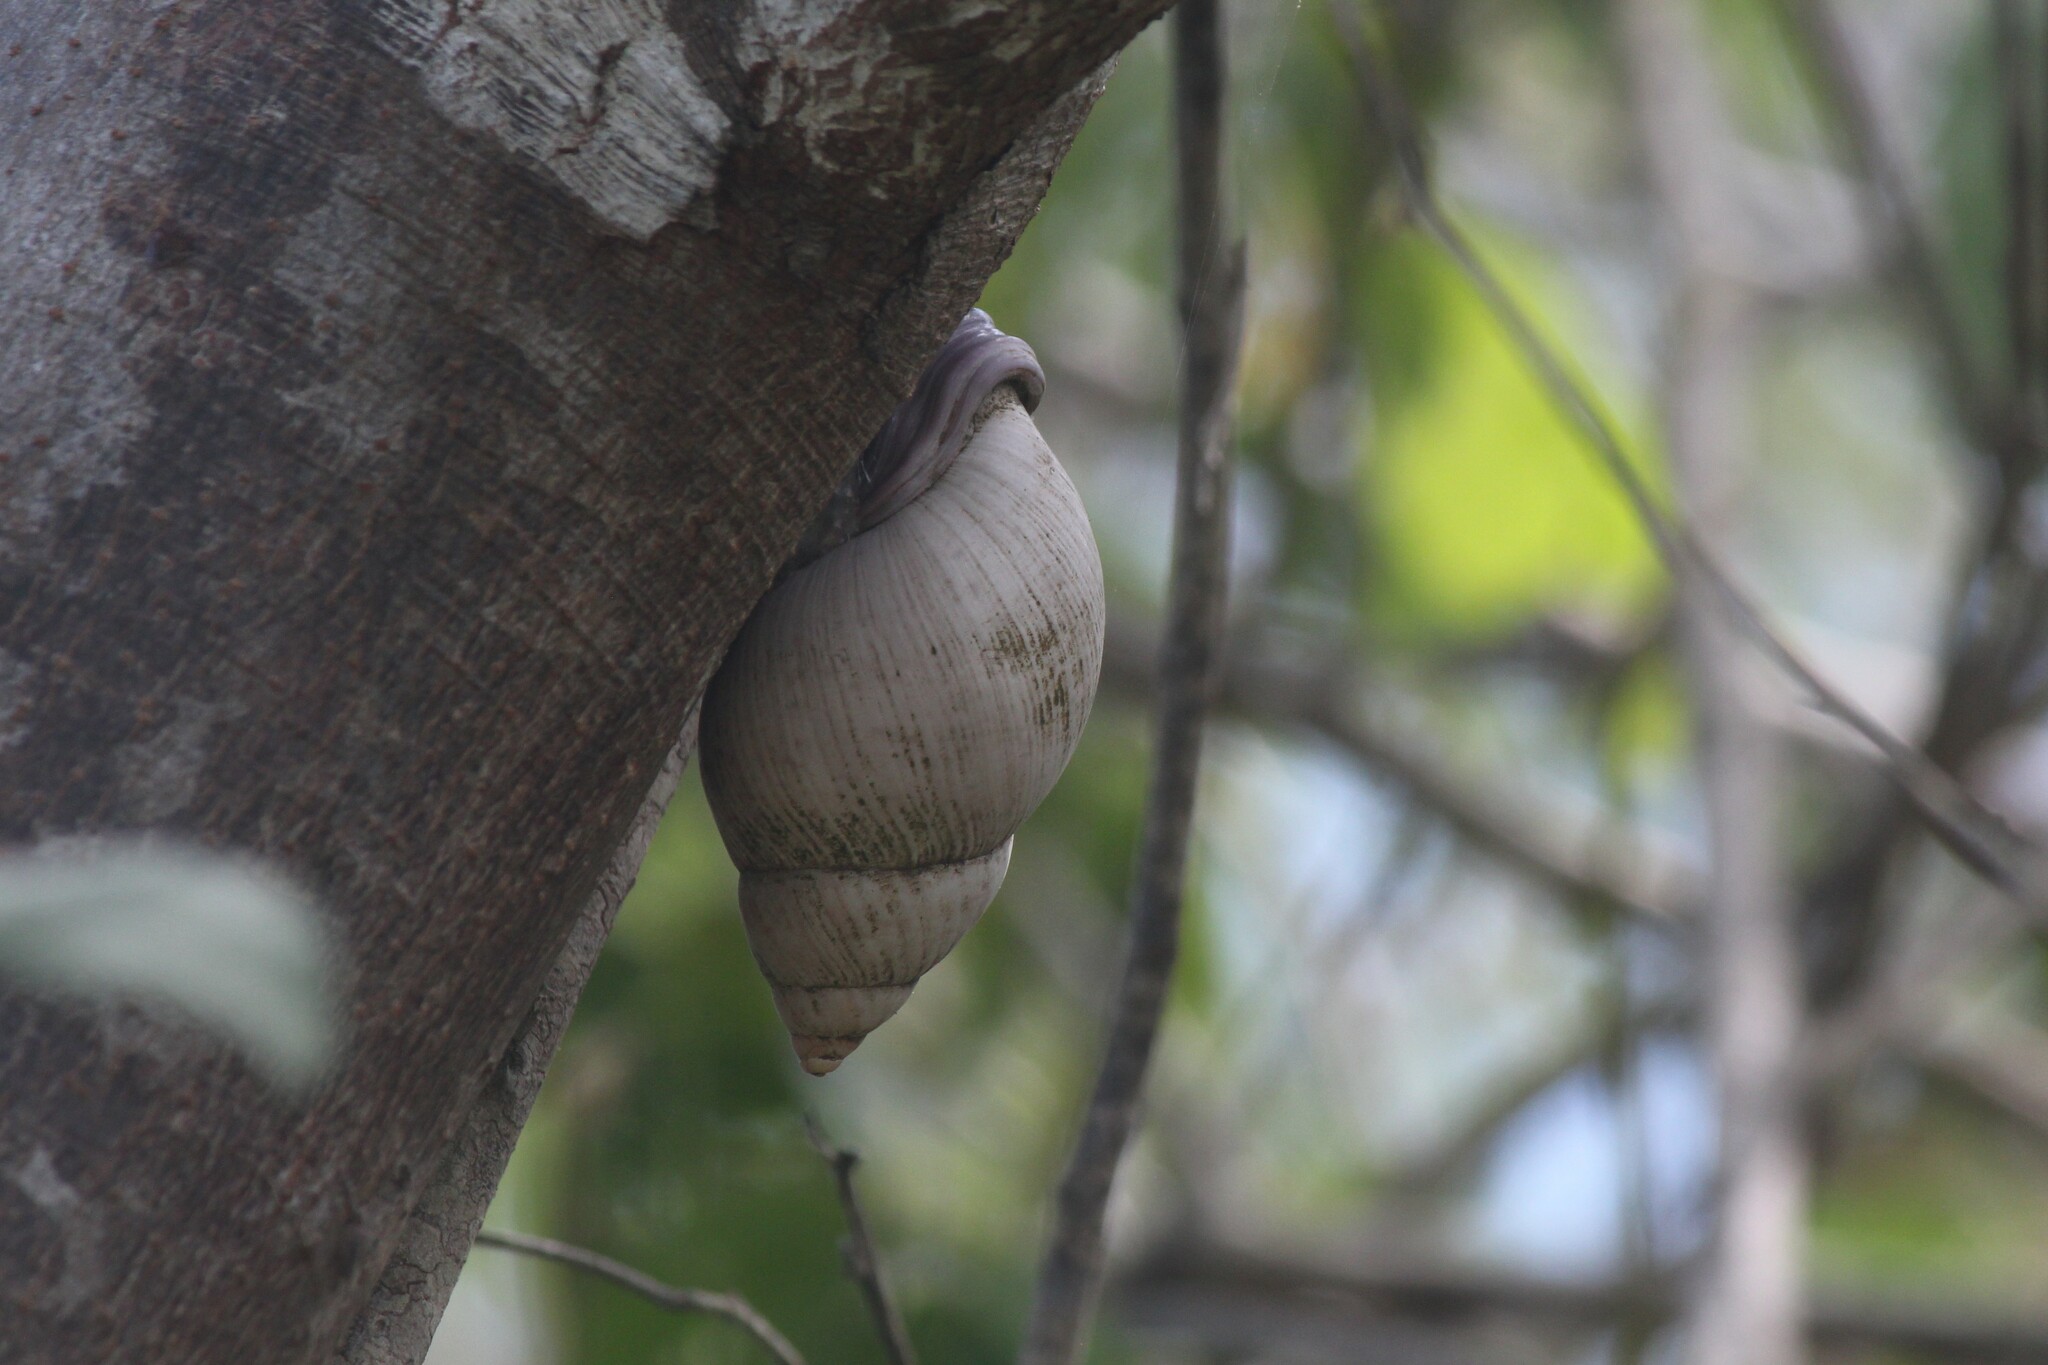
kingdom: Animalia
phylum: Mollusca
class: Gastropoda
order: Stylommatophora
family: Orthalicidae
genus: Porphyrobaphe
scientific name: Porphyrobaphe iostoma
